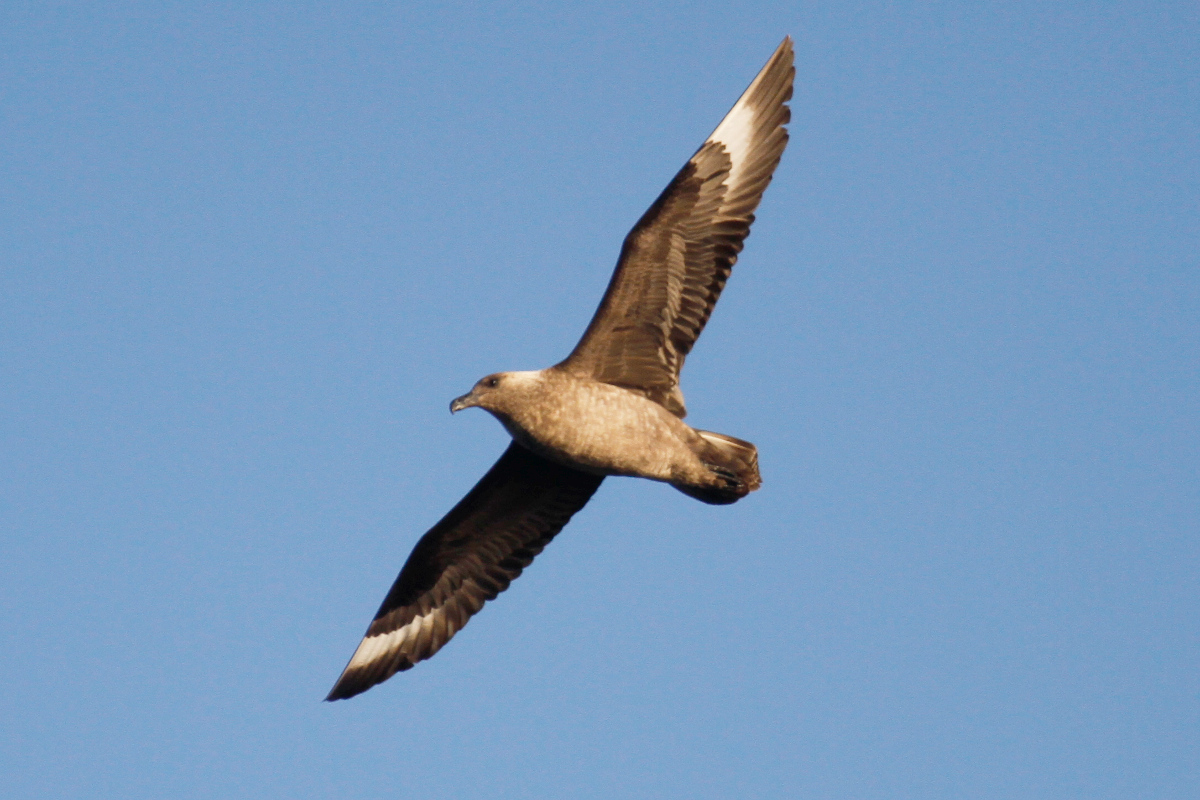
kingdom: Animalia
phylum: Chordata
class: Aves
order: Charadriiformes
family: Stercorariidae
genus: Stercorarius
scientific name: Stercorarius maccormicki
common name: South polar skua
